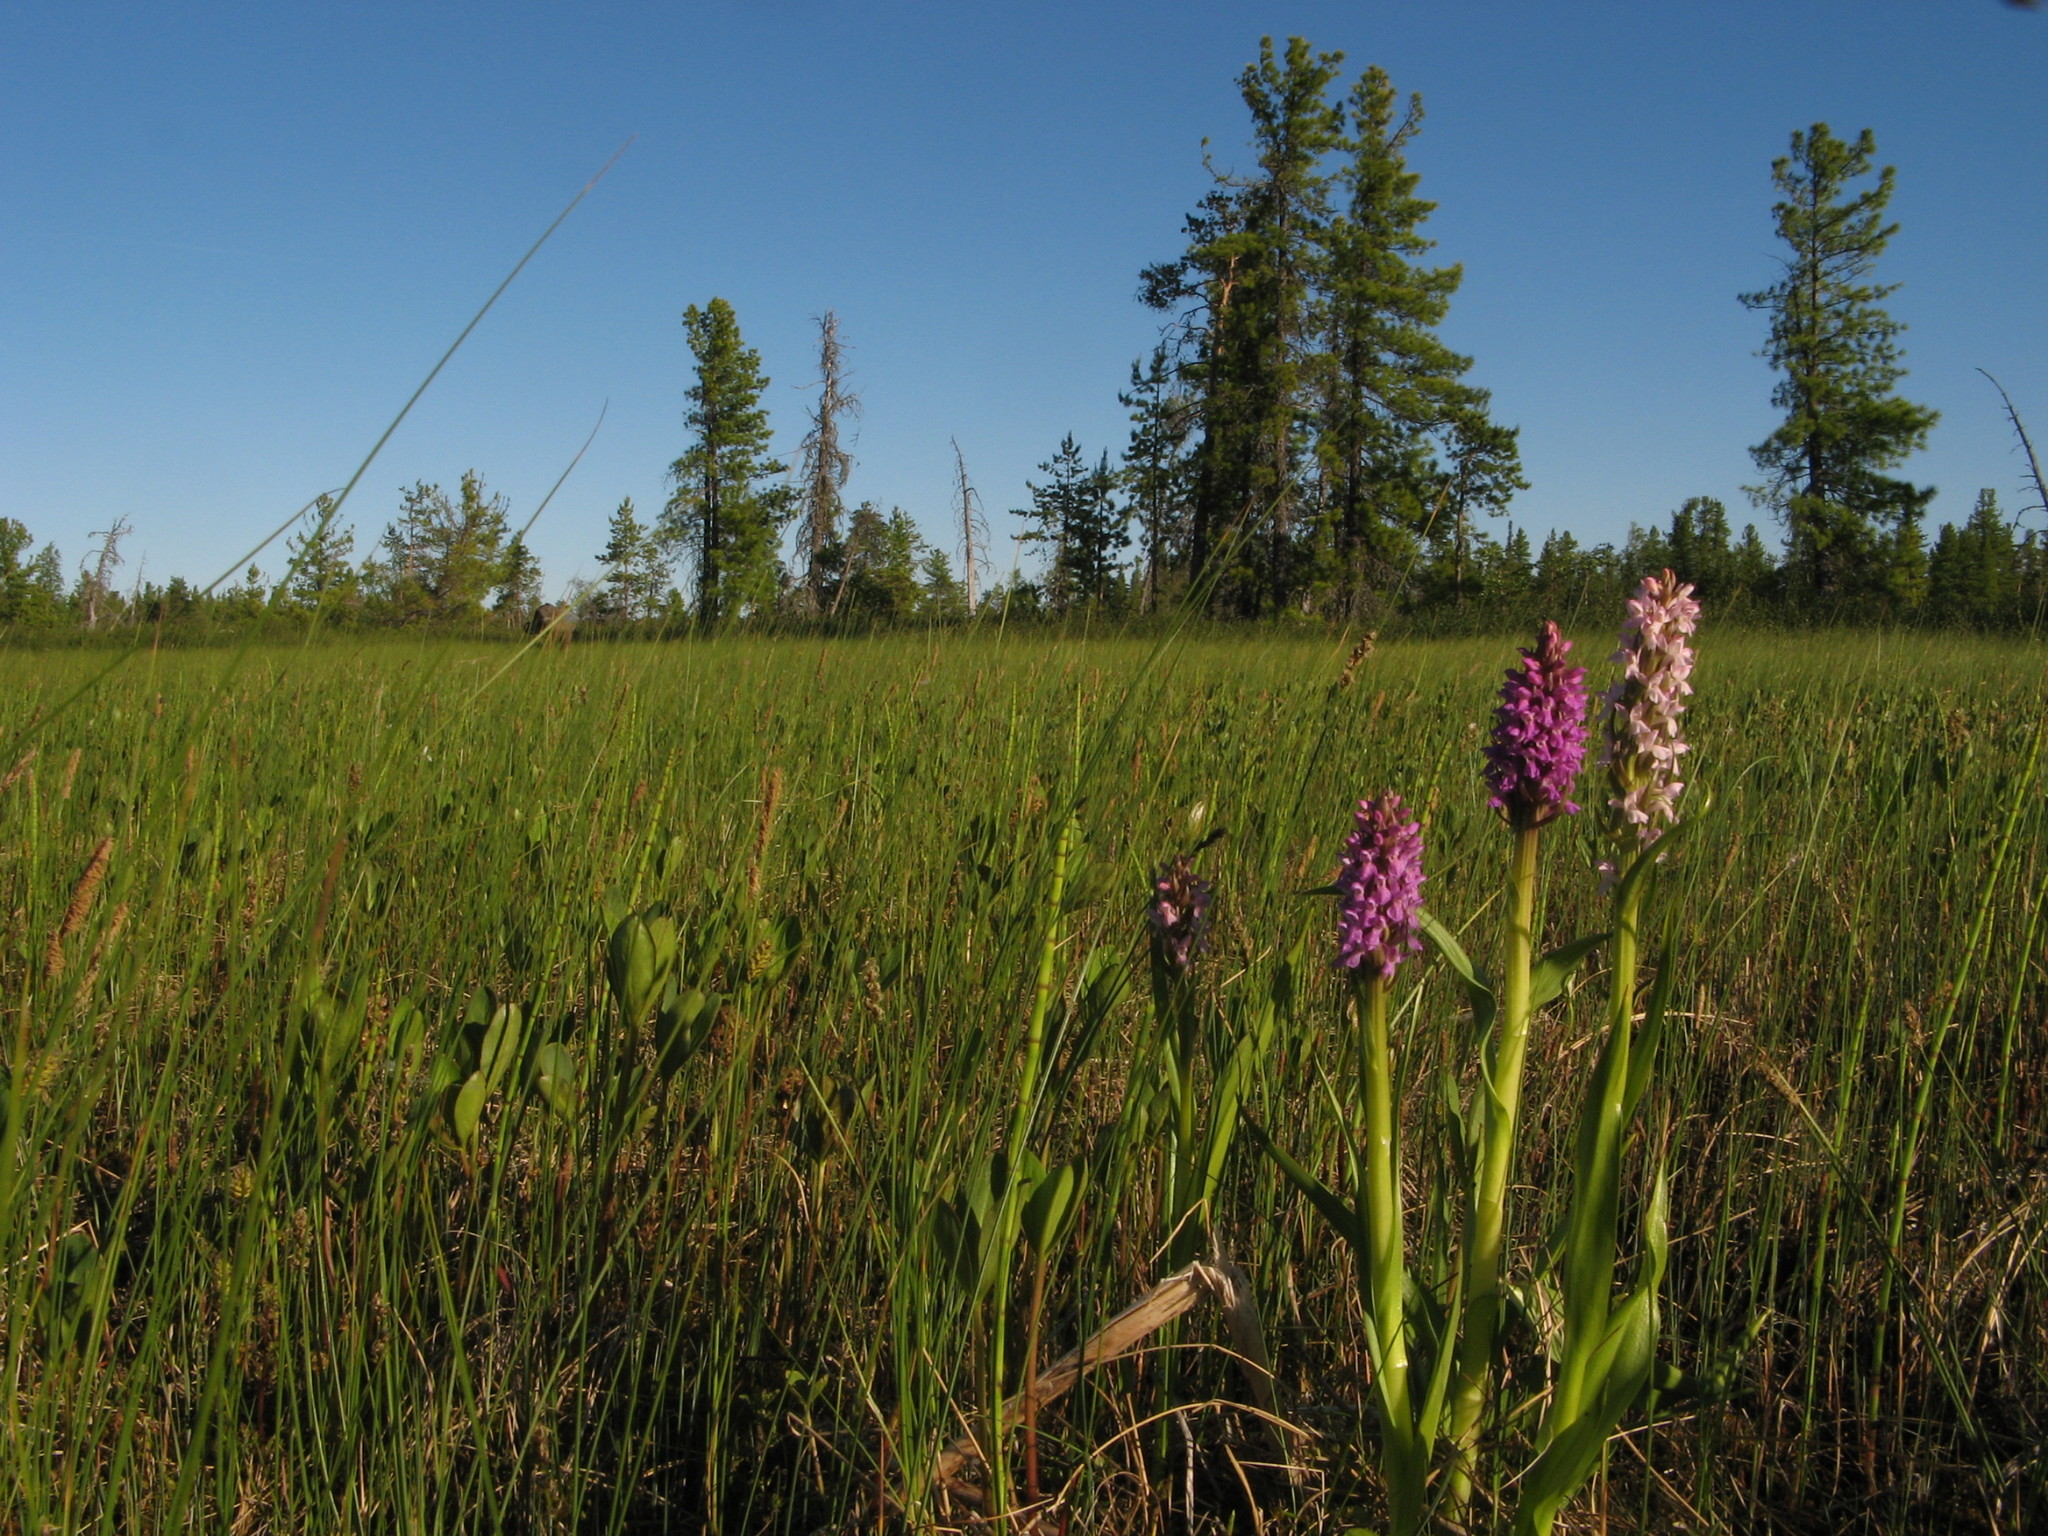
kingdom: Plantae
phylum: Tracheophyta
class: Liliopsida
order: Asparagales
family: Orchidaceae
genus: Dactylorhiza
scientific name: Dactylorhiza incarnata
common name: Early marsh-orchid
